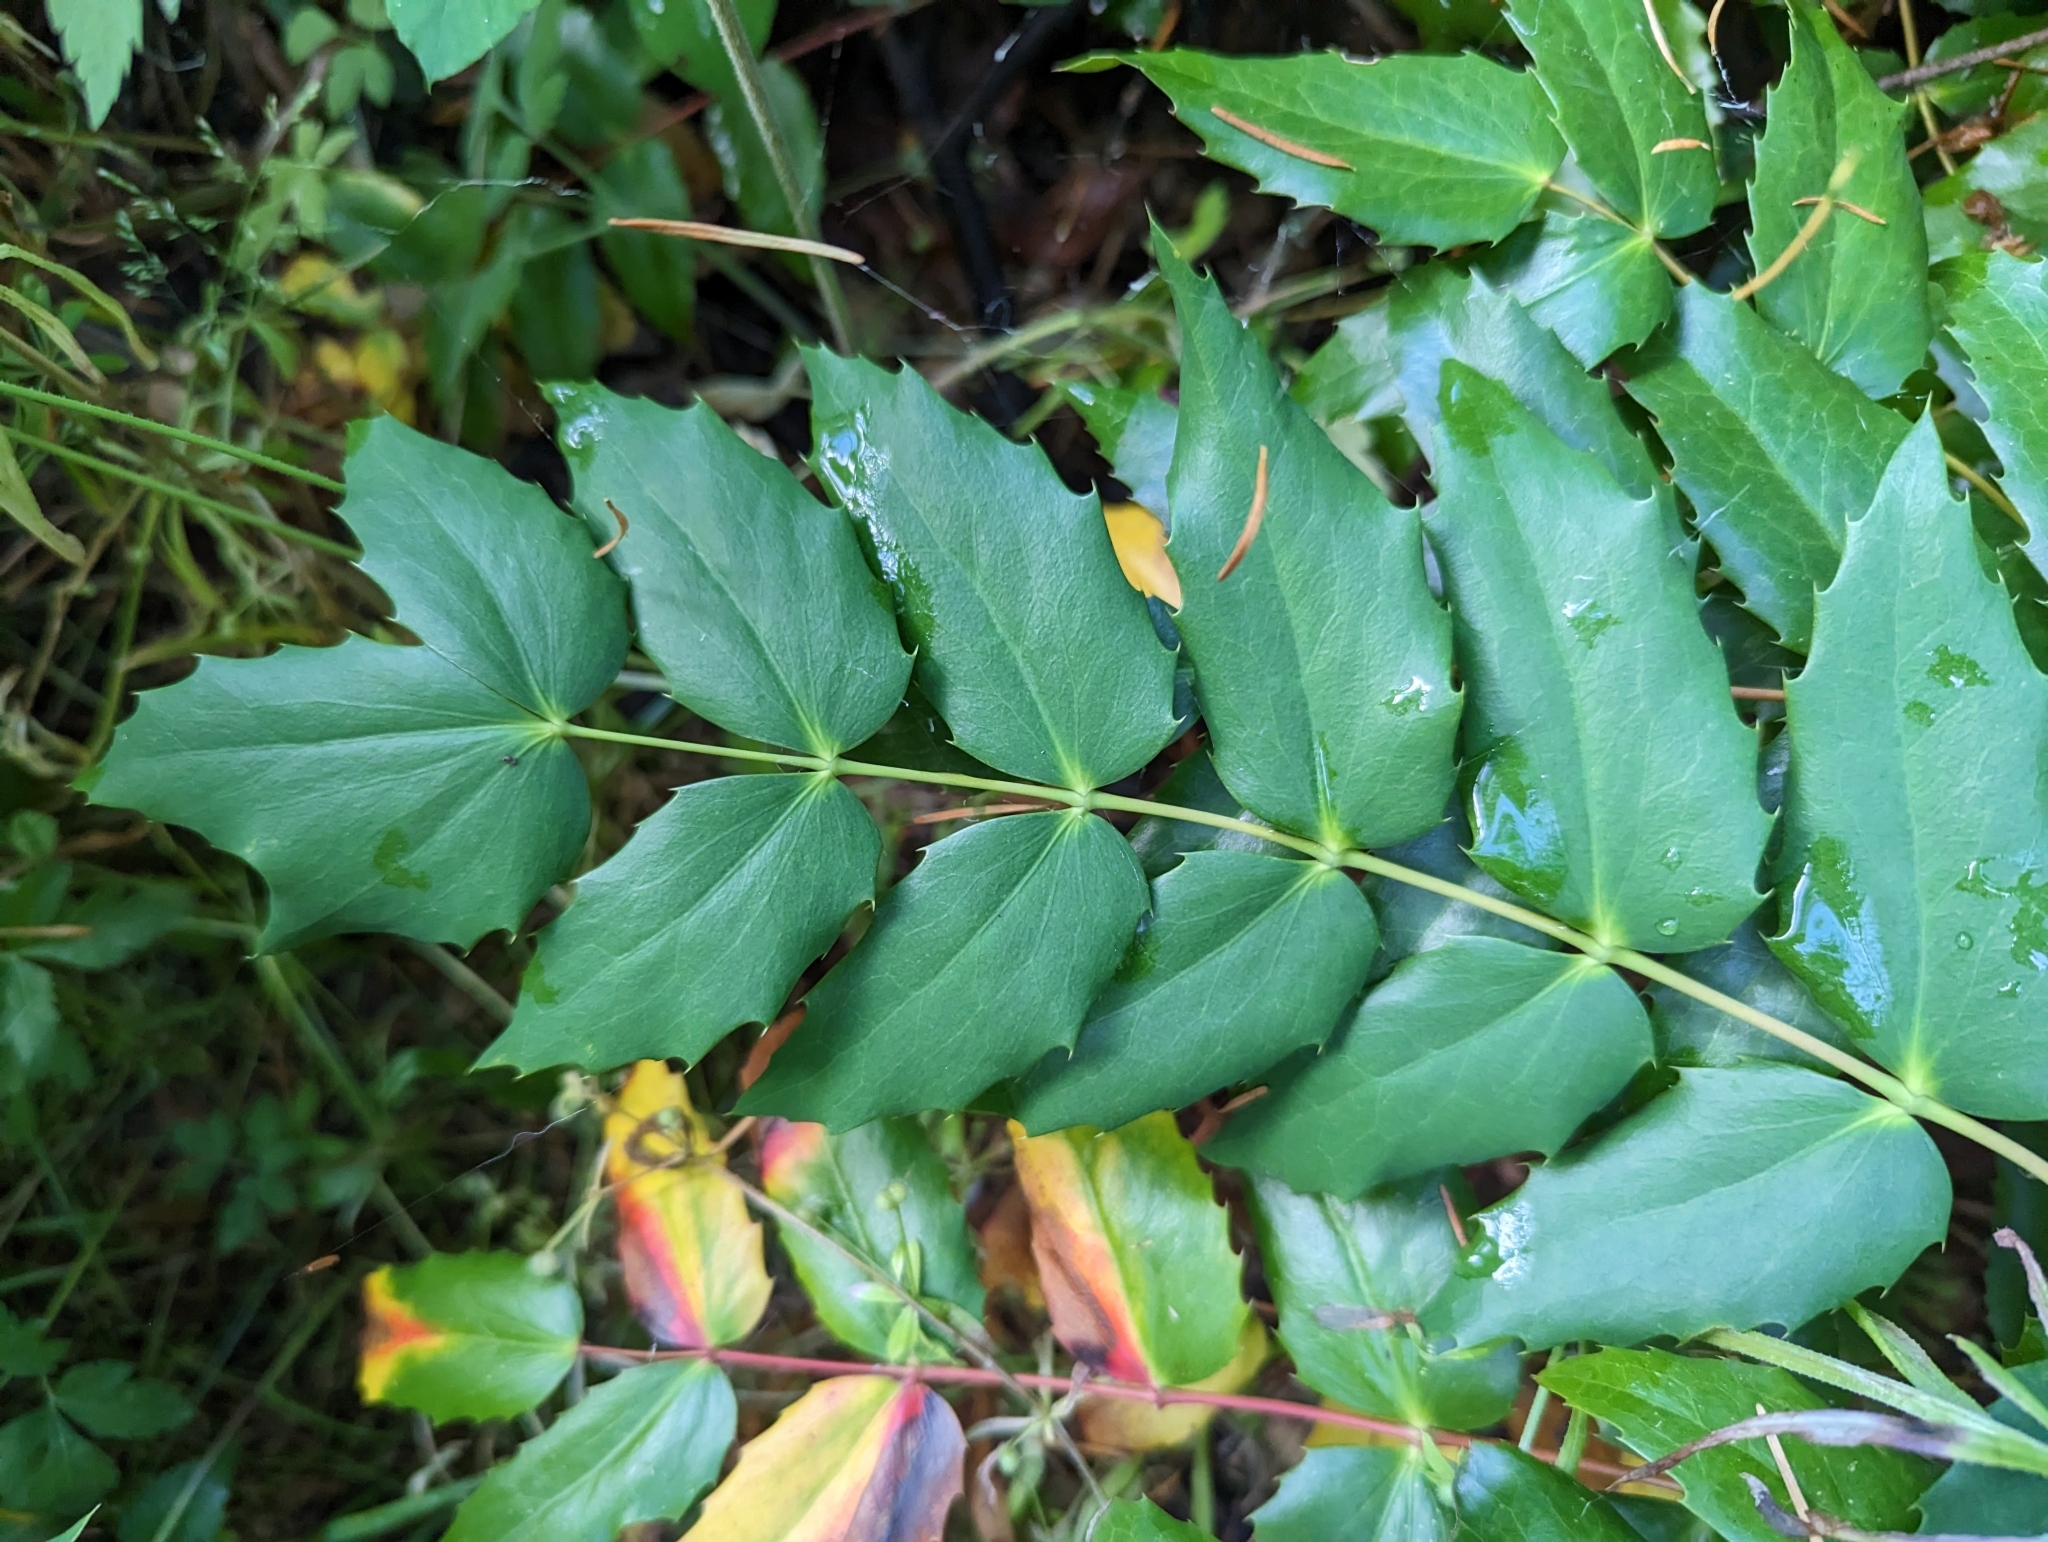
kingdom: Plantae
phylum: Tracheophyta
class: Magnoliopsida
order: Ranunculales
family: Berberidaceae
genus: Mahonia
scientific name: Mahonia nervosa
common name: Cascade oregon-grape
